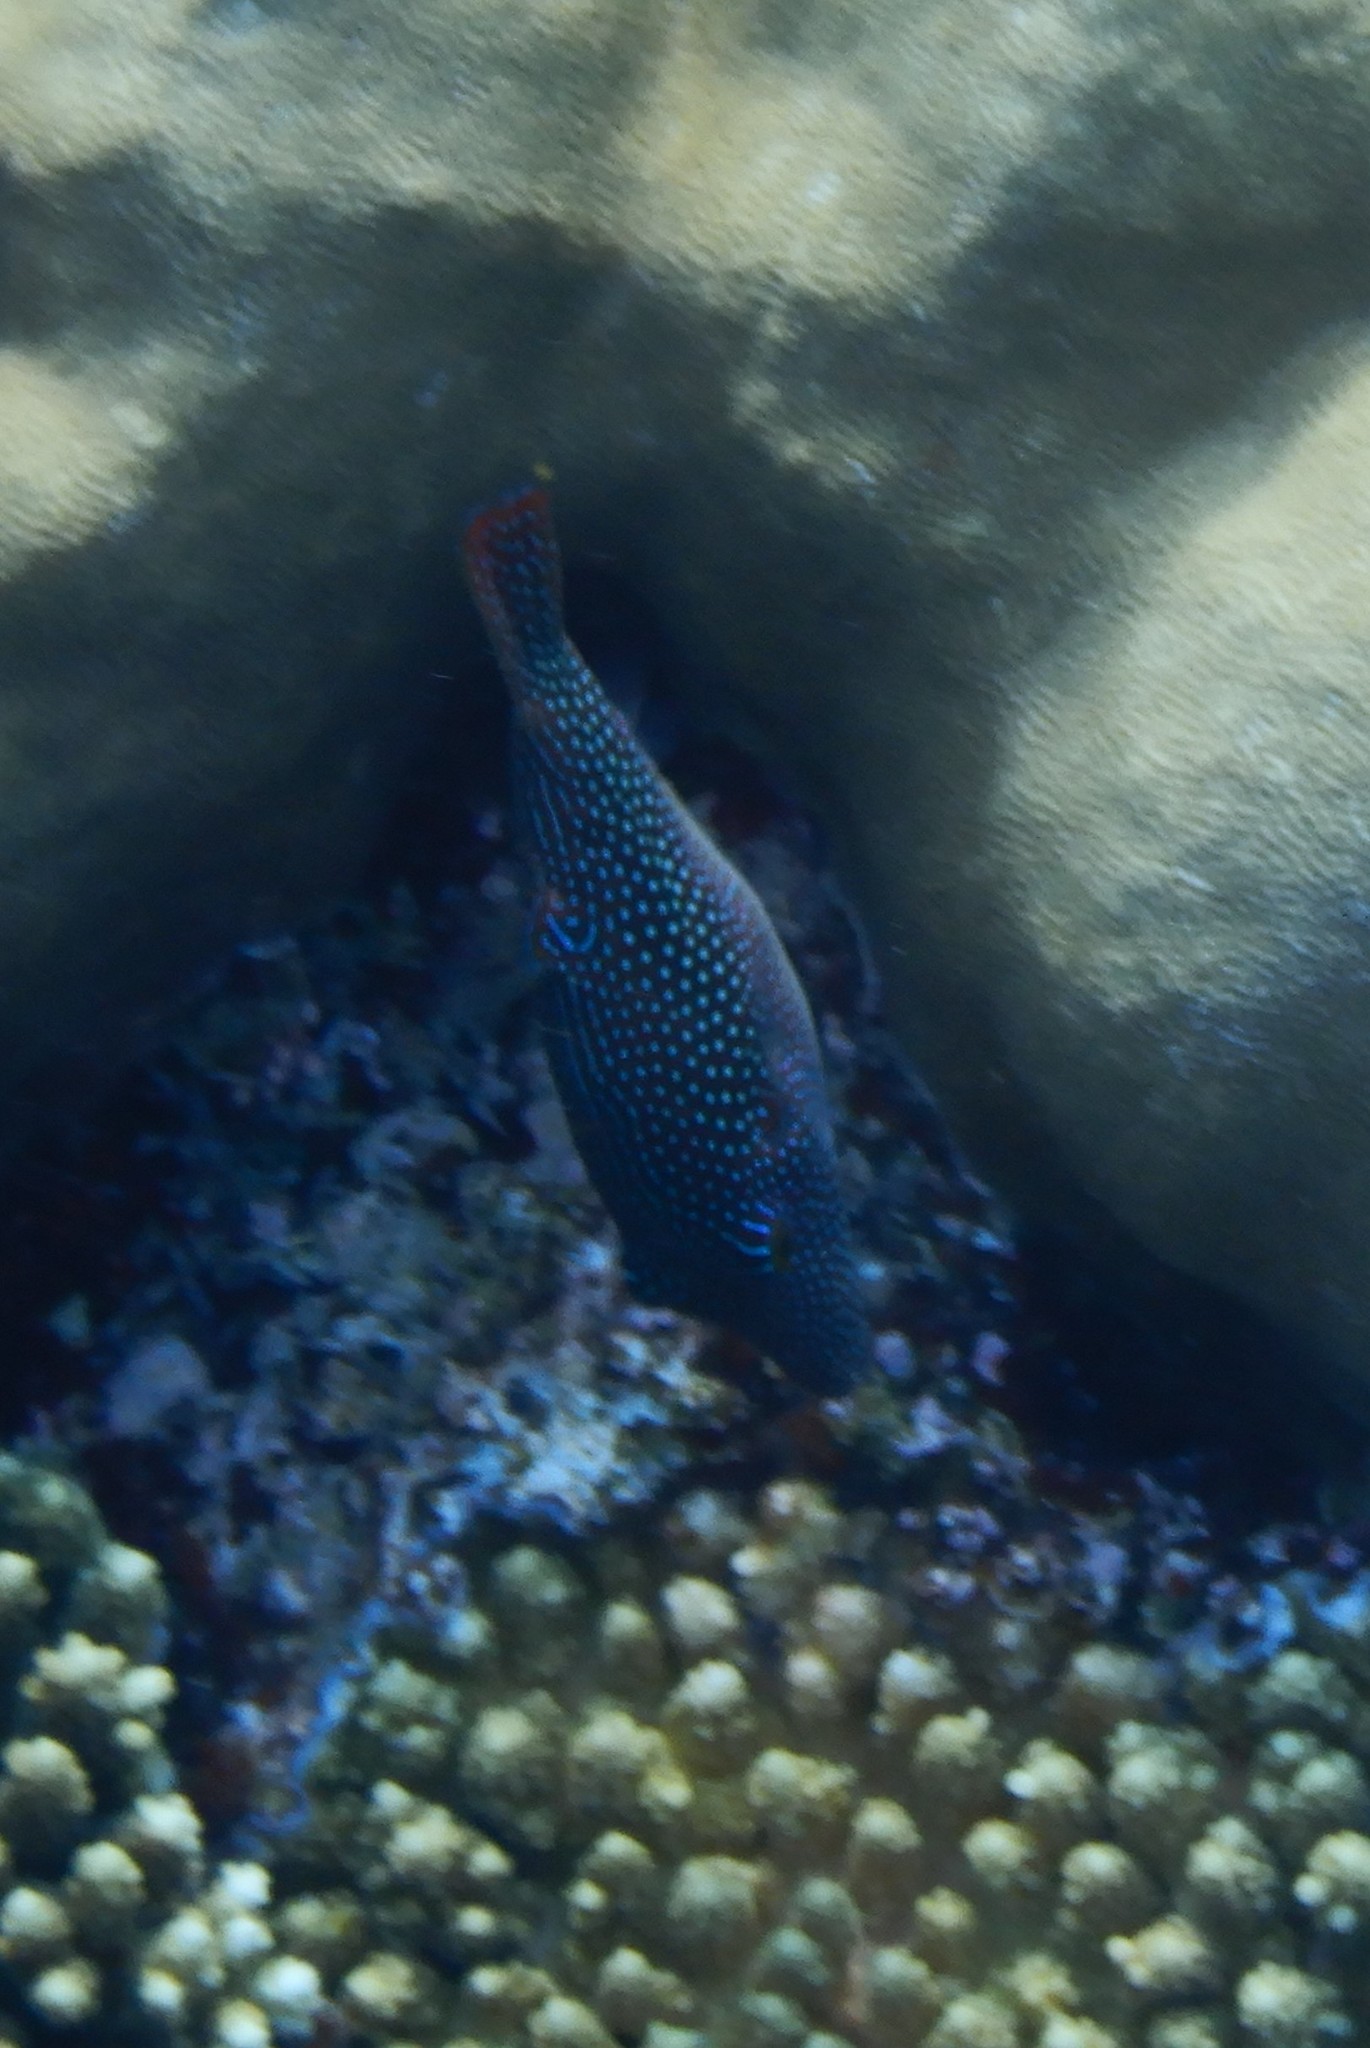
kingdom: Animalia
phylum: Chordata
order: Tetraodontiformes
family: Tetraodontidae
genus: Canthigaster
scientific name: Canthigaster margaritata
